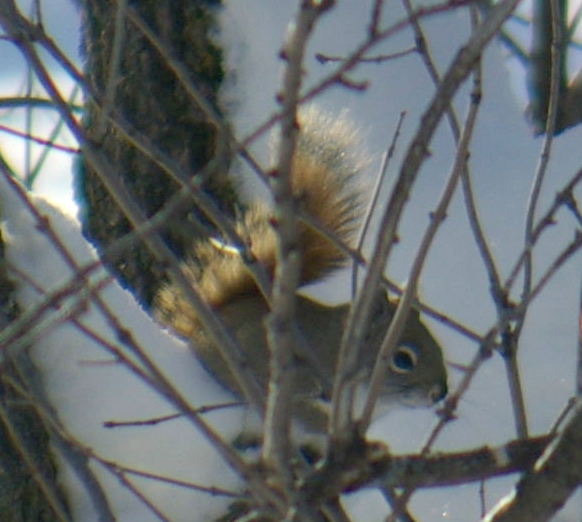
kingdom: Animalia
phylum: Chordata
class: Mammalia
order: Rodentia
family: Sciuridae
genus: Tamiasciurus
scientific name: Tamiasciurus hudsonicus
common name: Red squirrel
